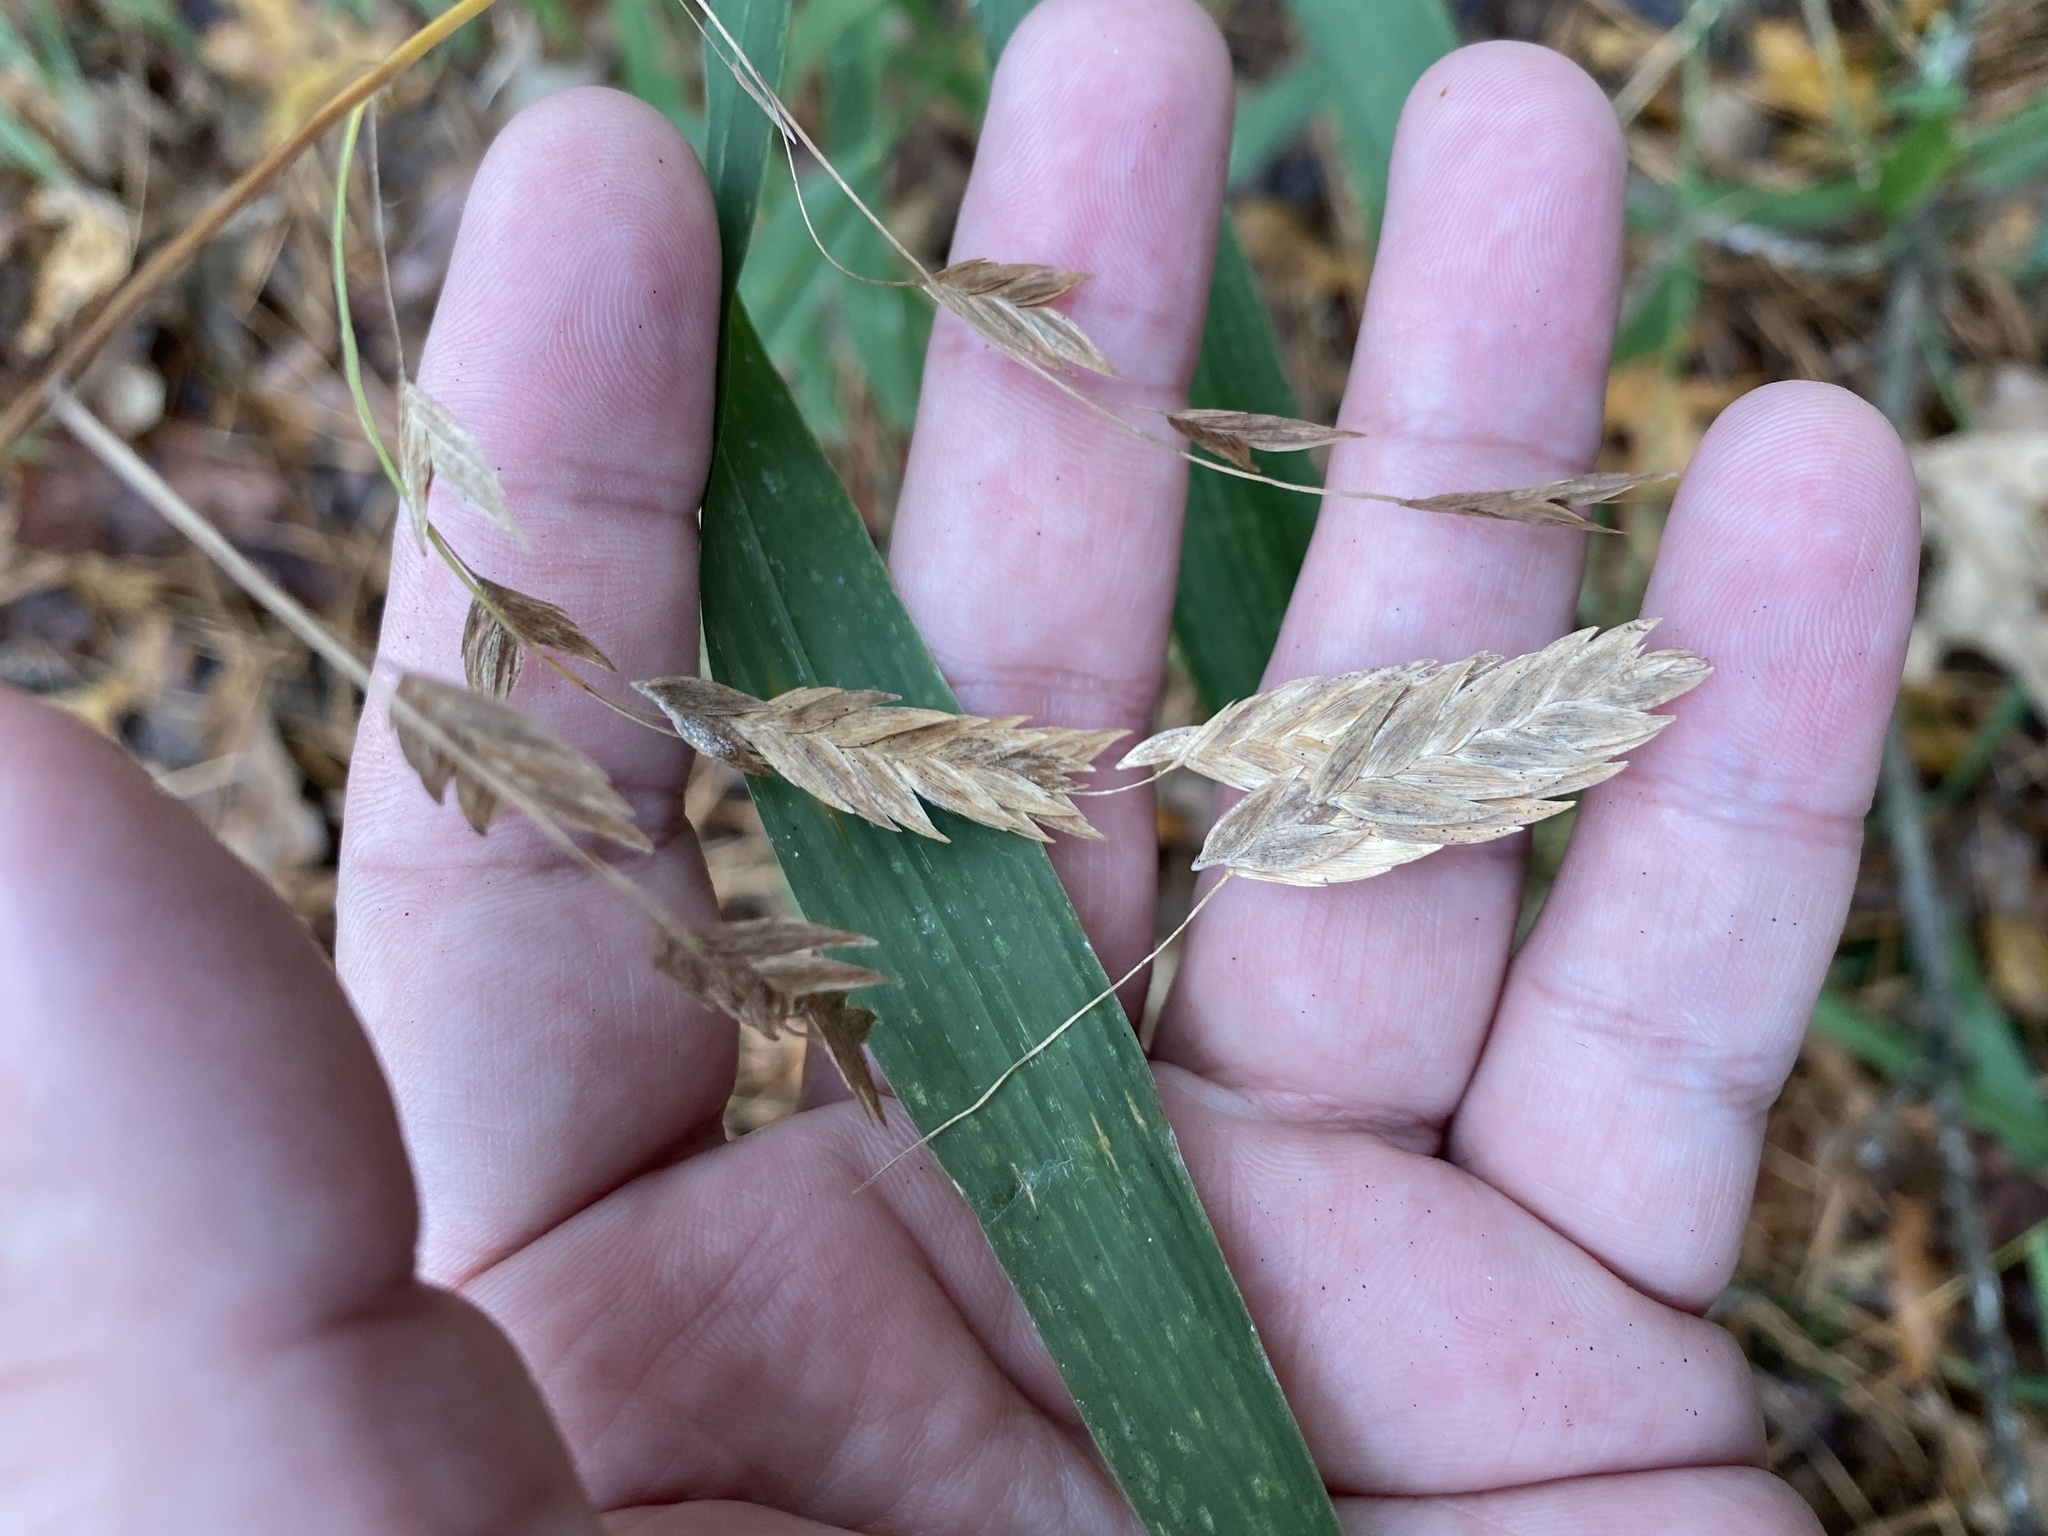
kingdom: Plantae
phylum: Tracheophyta
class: Liliopsida
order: Poales
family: Poaceae
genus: Chasmanthium
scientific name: Chasmanthium latifolium
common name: Broad-leaved chasmanthium
